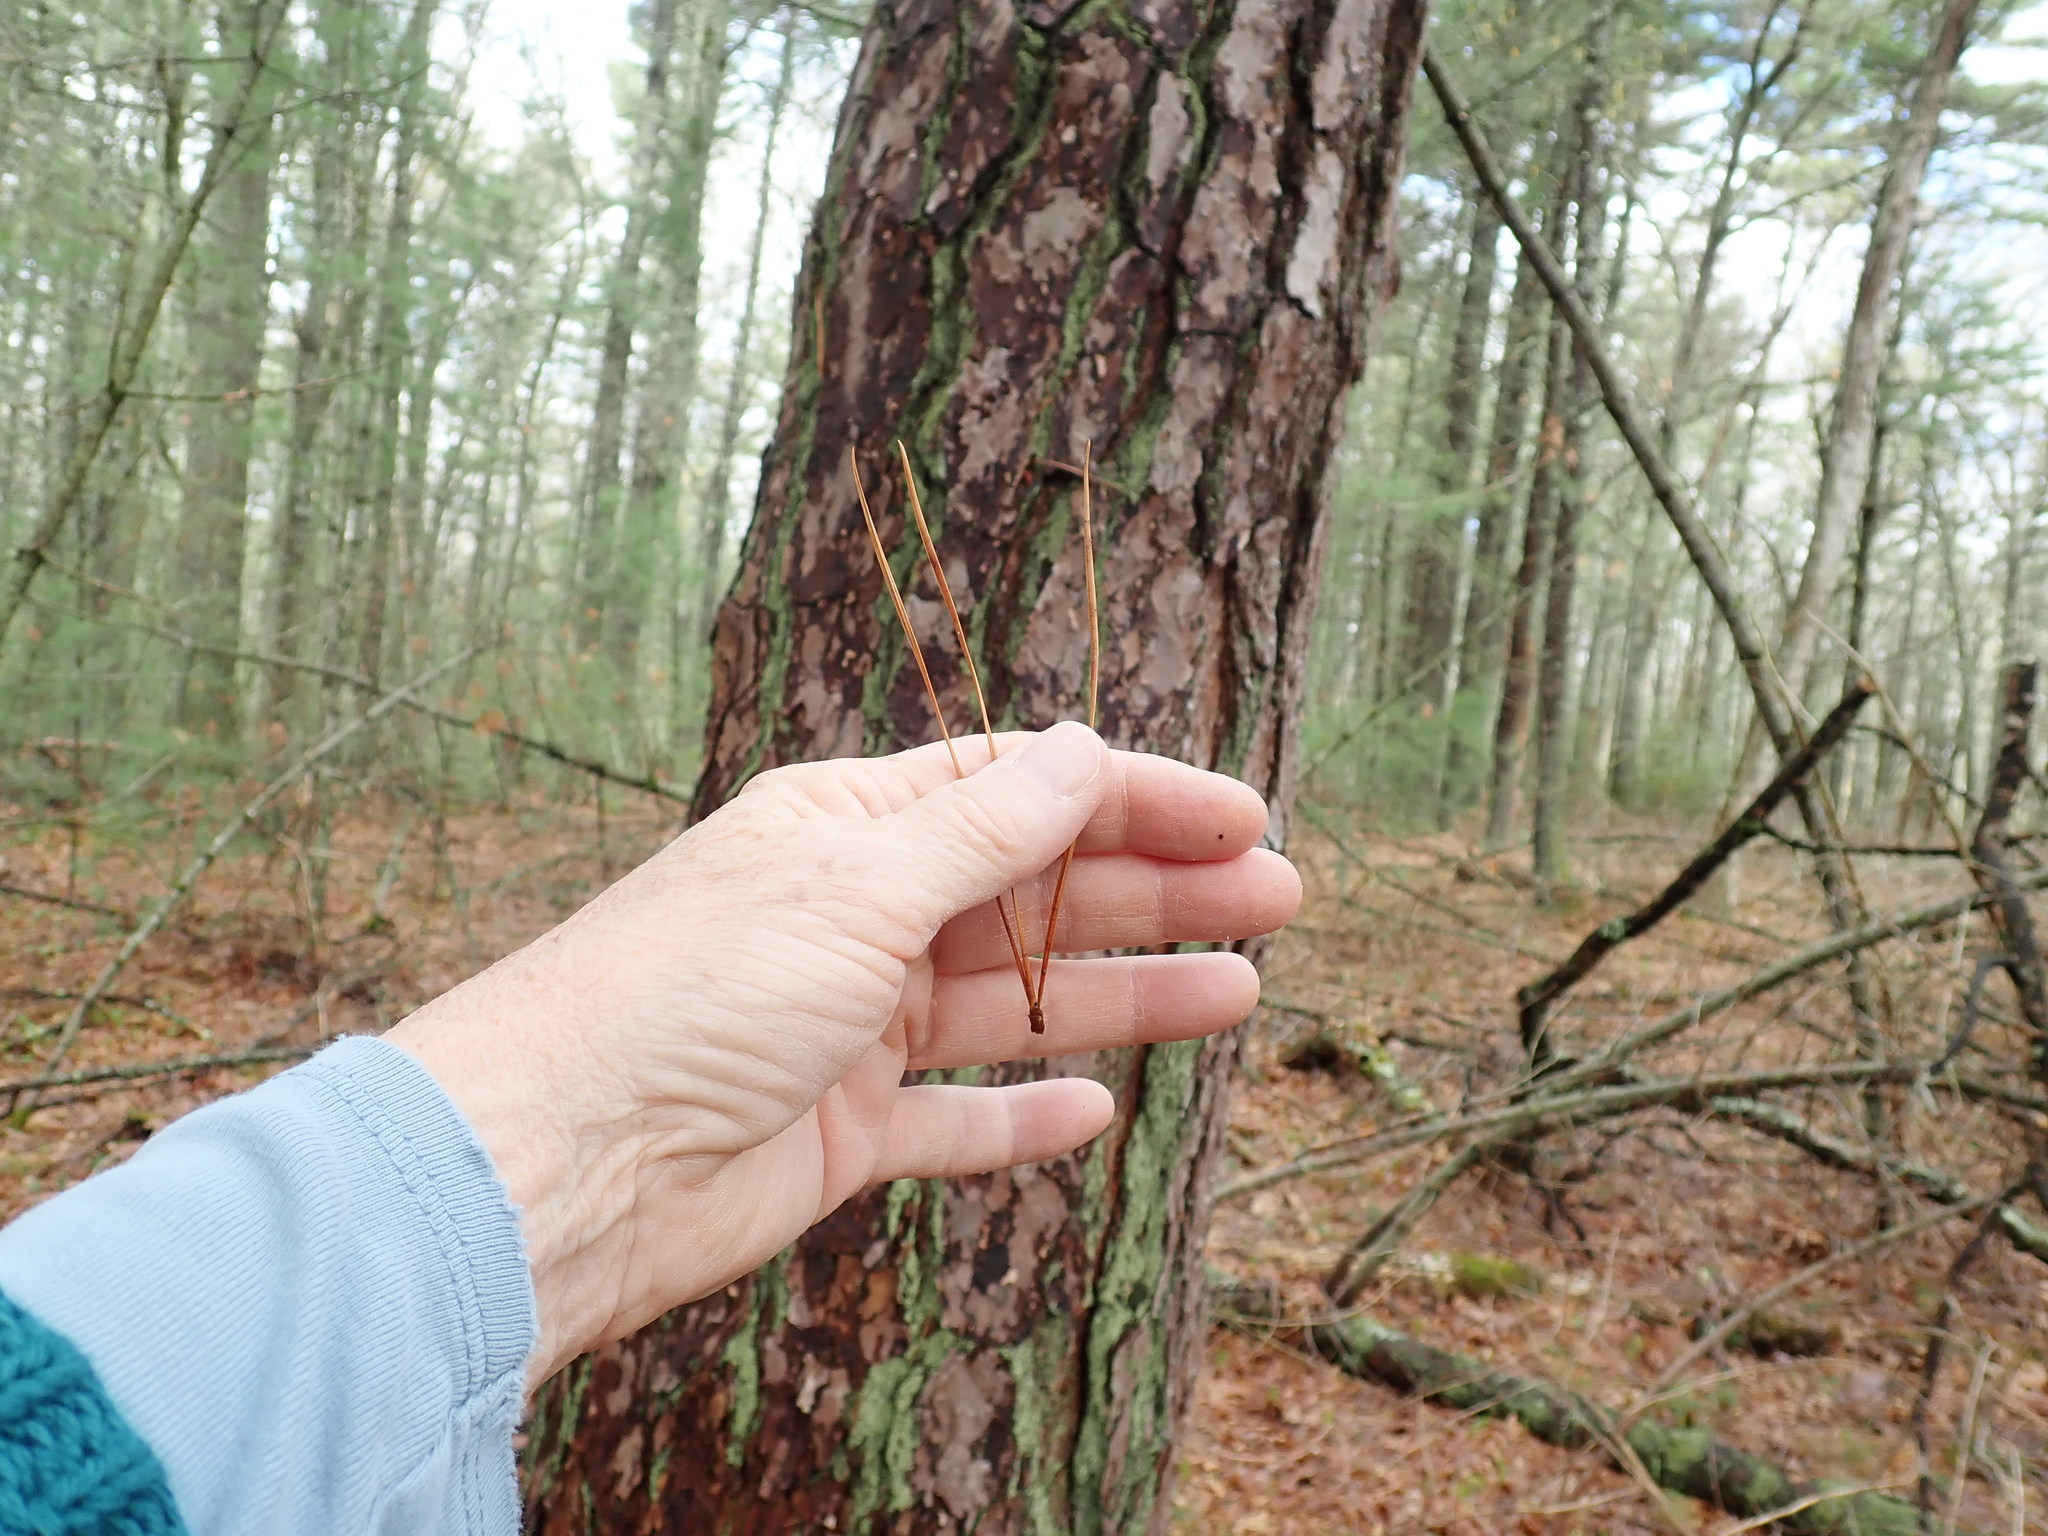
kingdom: Plantae
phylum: Tracheophyta
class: Pinopsida
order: Pinales
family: Pinaceae
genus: Pinus
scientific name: Pinus rigida
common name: Pitch pine
